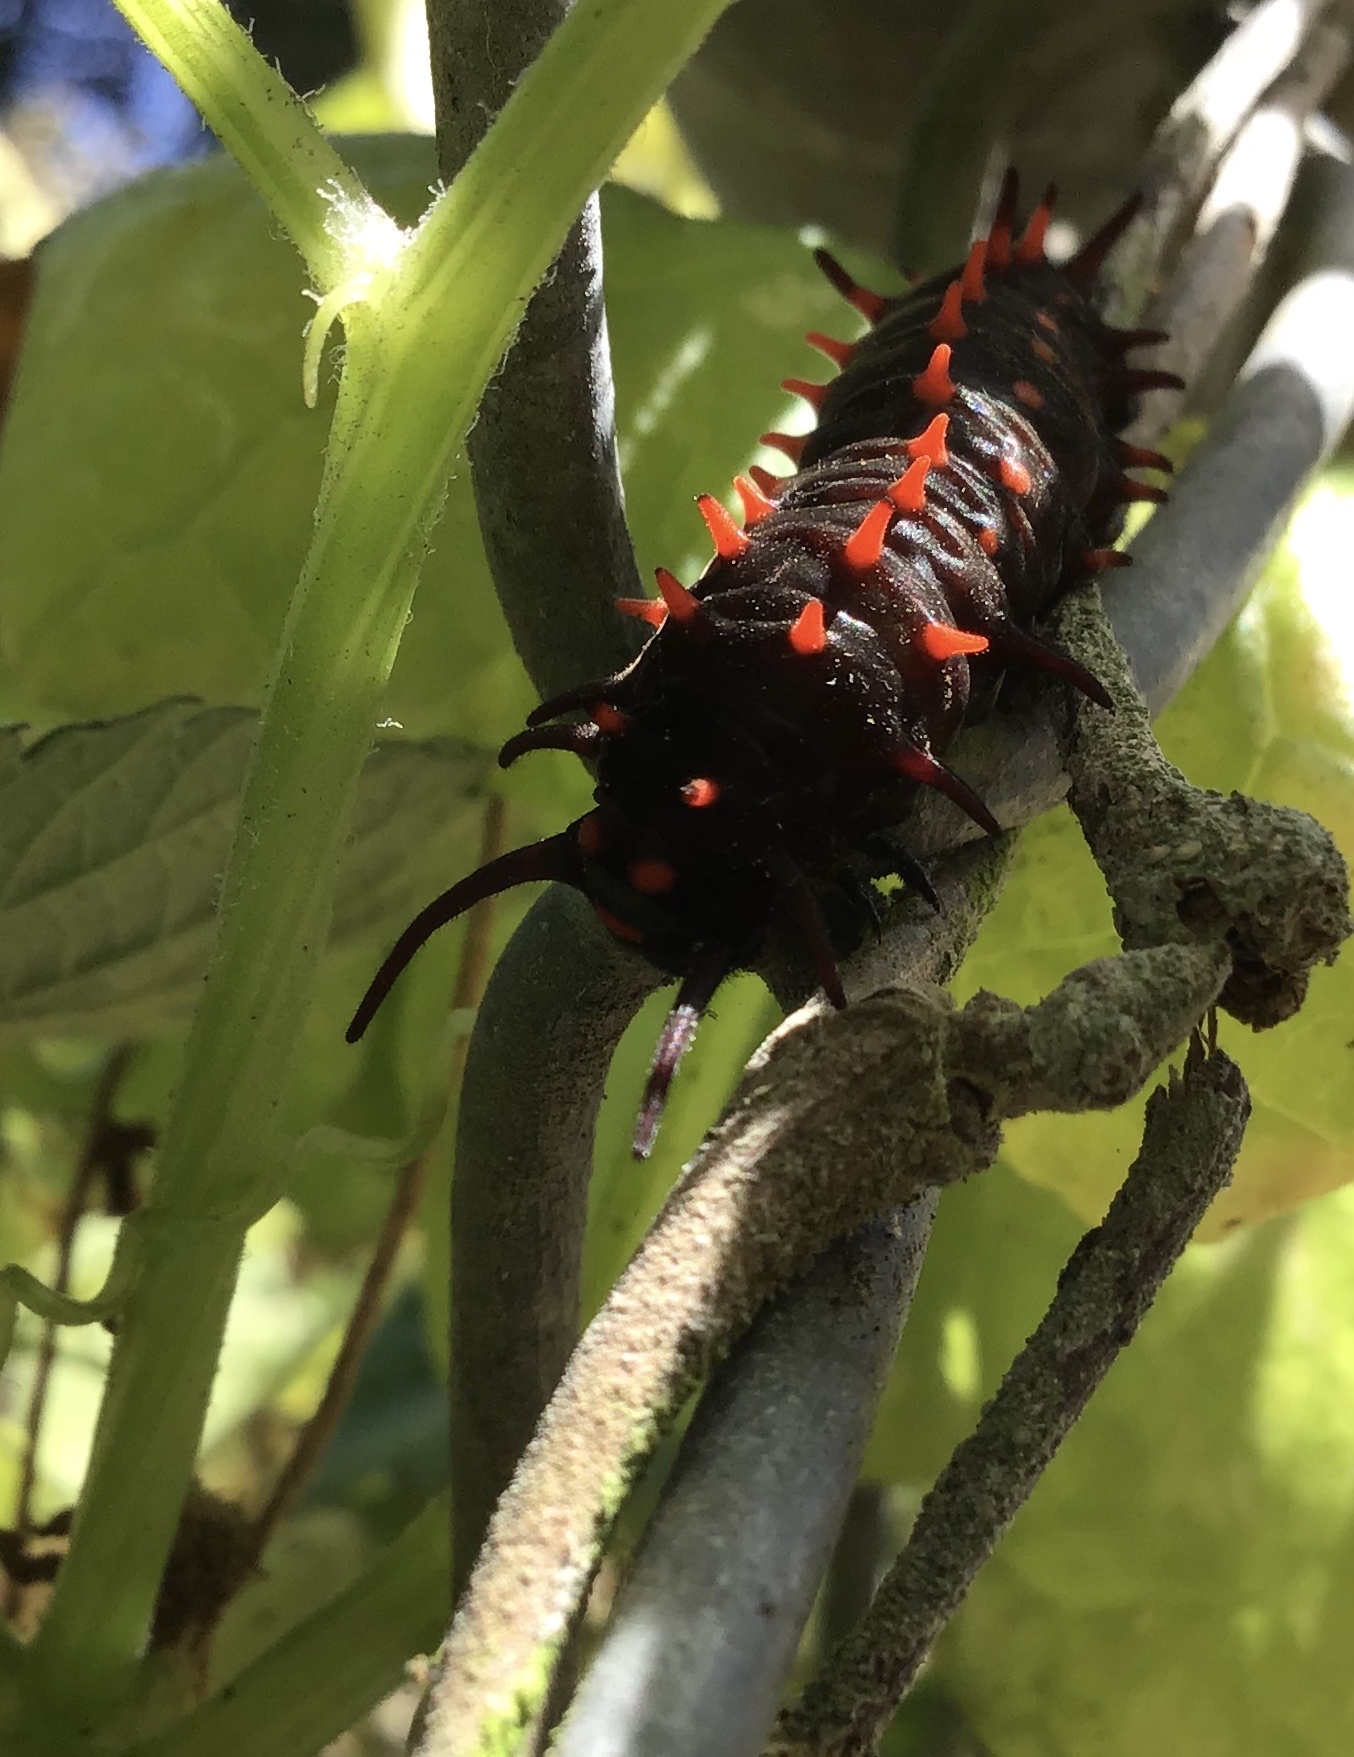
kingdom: Animalia
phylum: Arthropoda
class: Insecta
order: Lepidoptera
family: Papilionidae
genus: Battus
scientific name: Battus philenor
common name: Pipevine swallowtail
